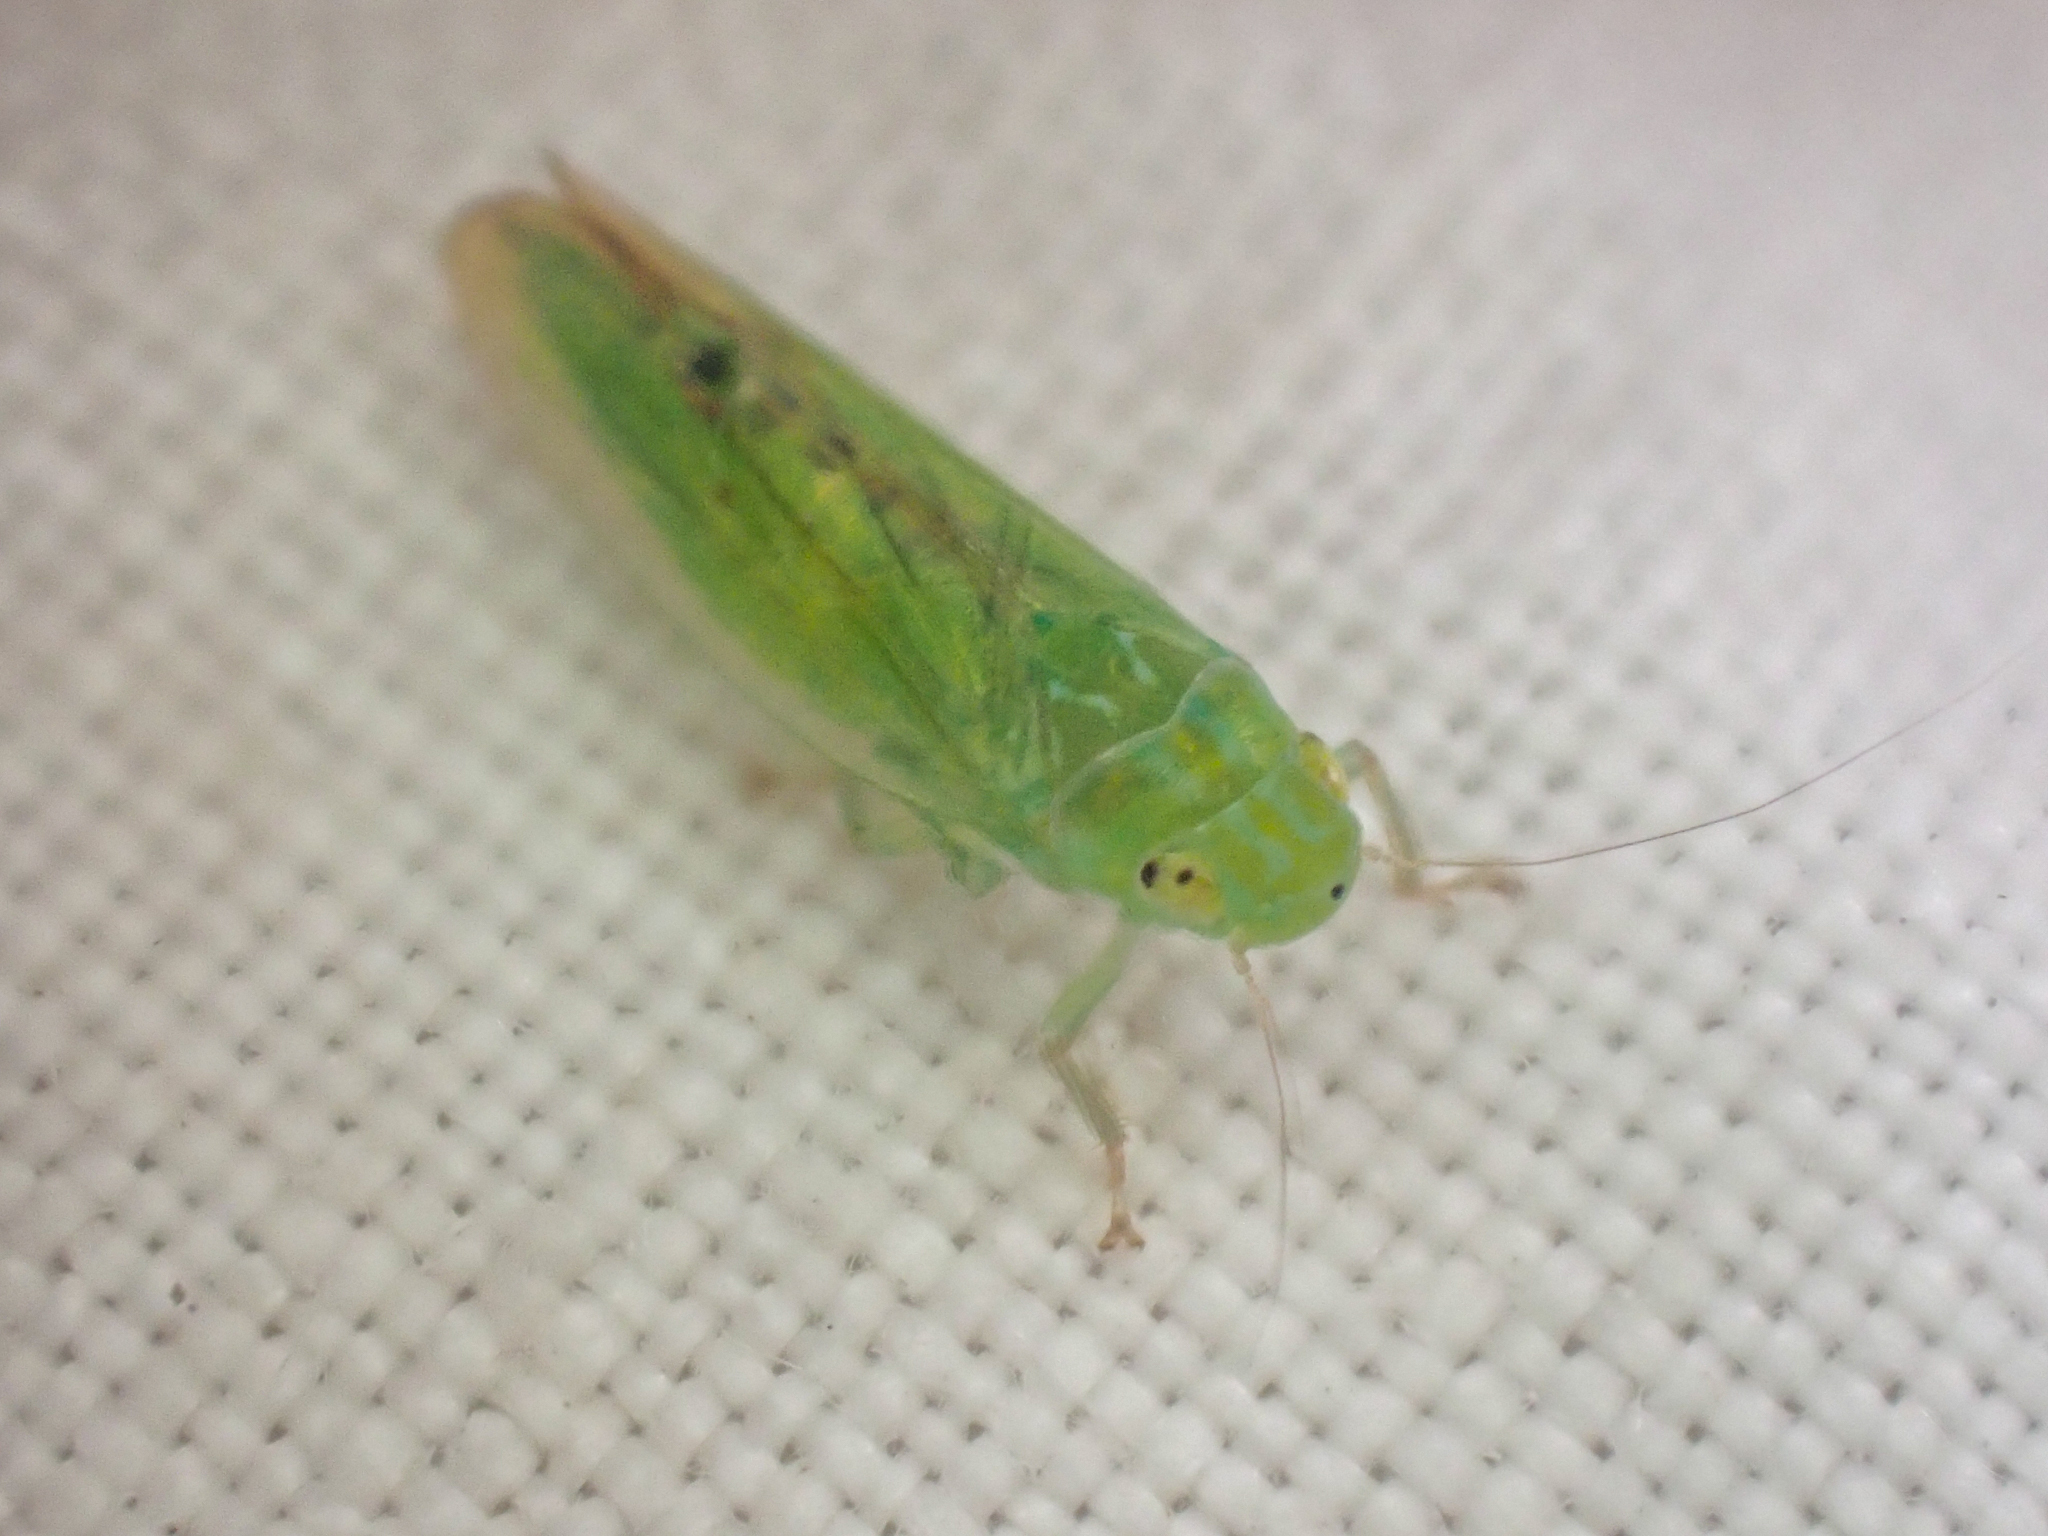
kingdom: Animalia
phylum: Arthropoda
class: Insecta
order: Hemiptera
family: Cicadellidae
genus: Neocoelidiana
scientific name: Neocoelidiana obscura
